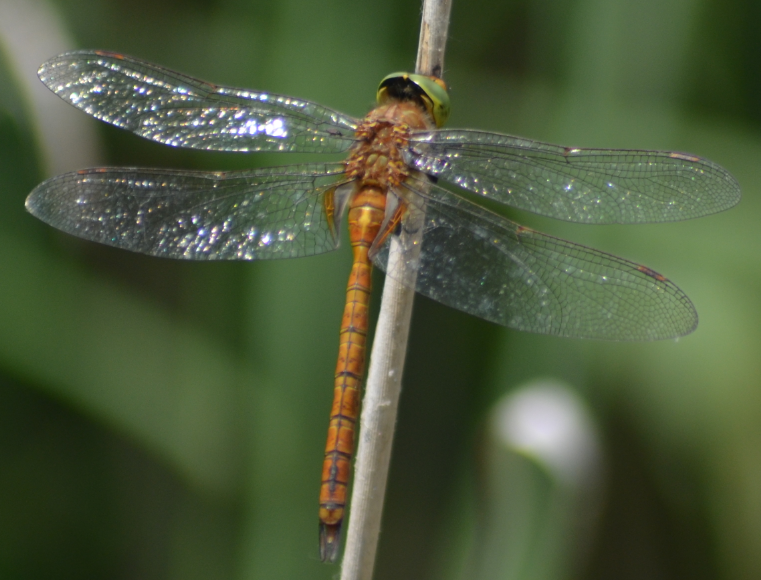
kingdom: Animalia
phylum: Arthropoda
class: Insecta
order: Odonata
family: Aeshnidae
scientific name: Aeshnidae
